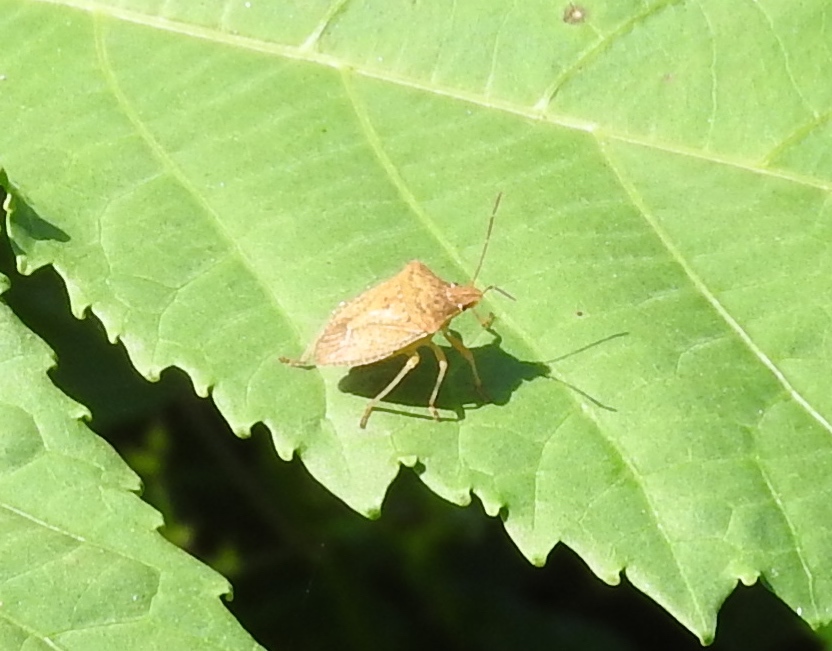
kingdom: Animalia
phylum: Arthropoda
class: Insecta
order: Hemiptera
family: Pentatomidae
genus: Euschistus
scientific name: Euschistus
